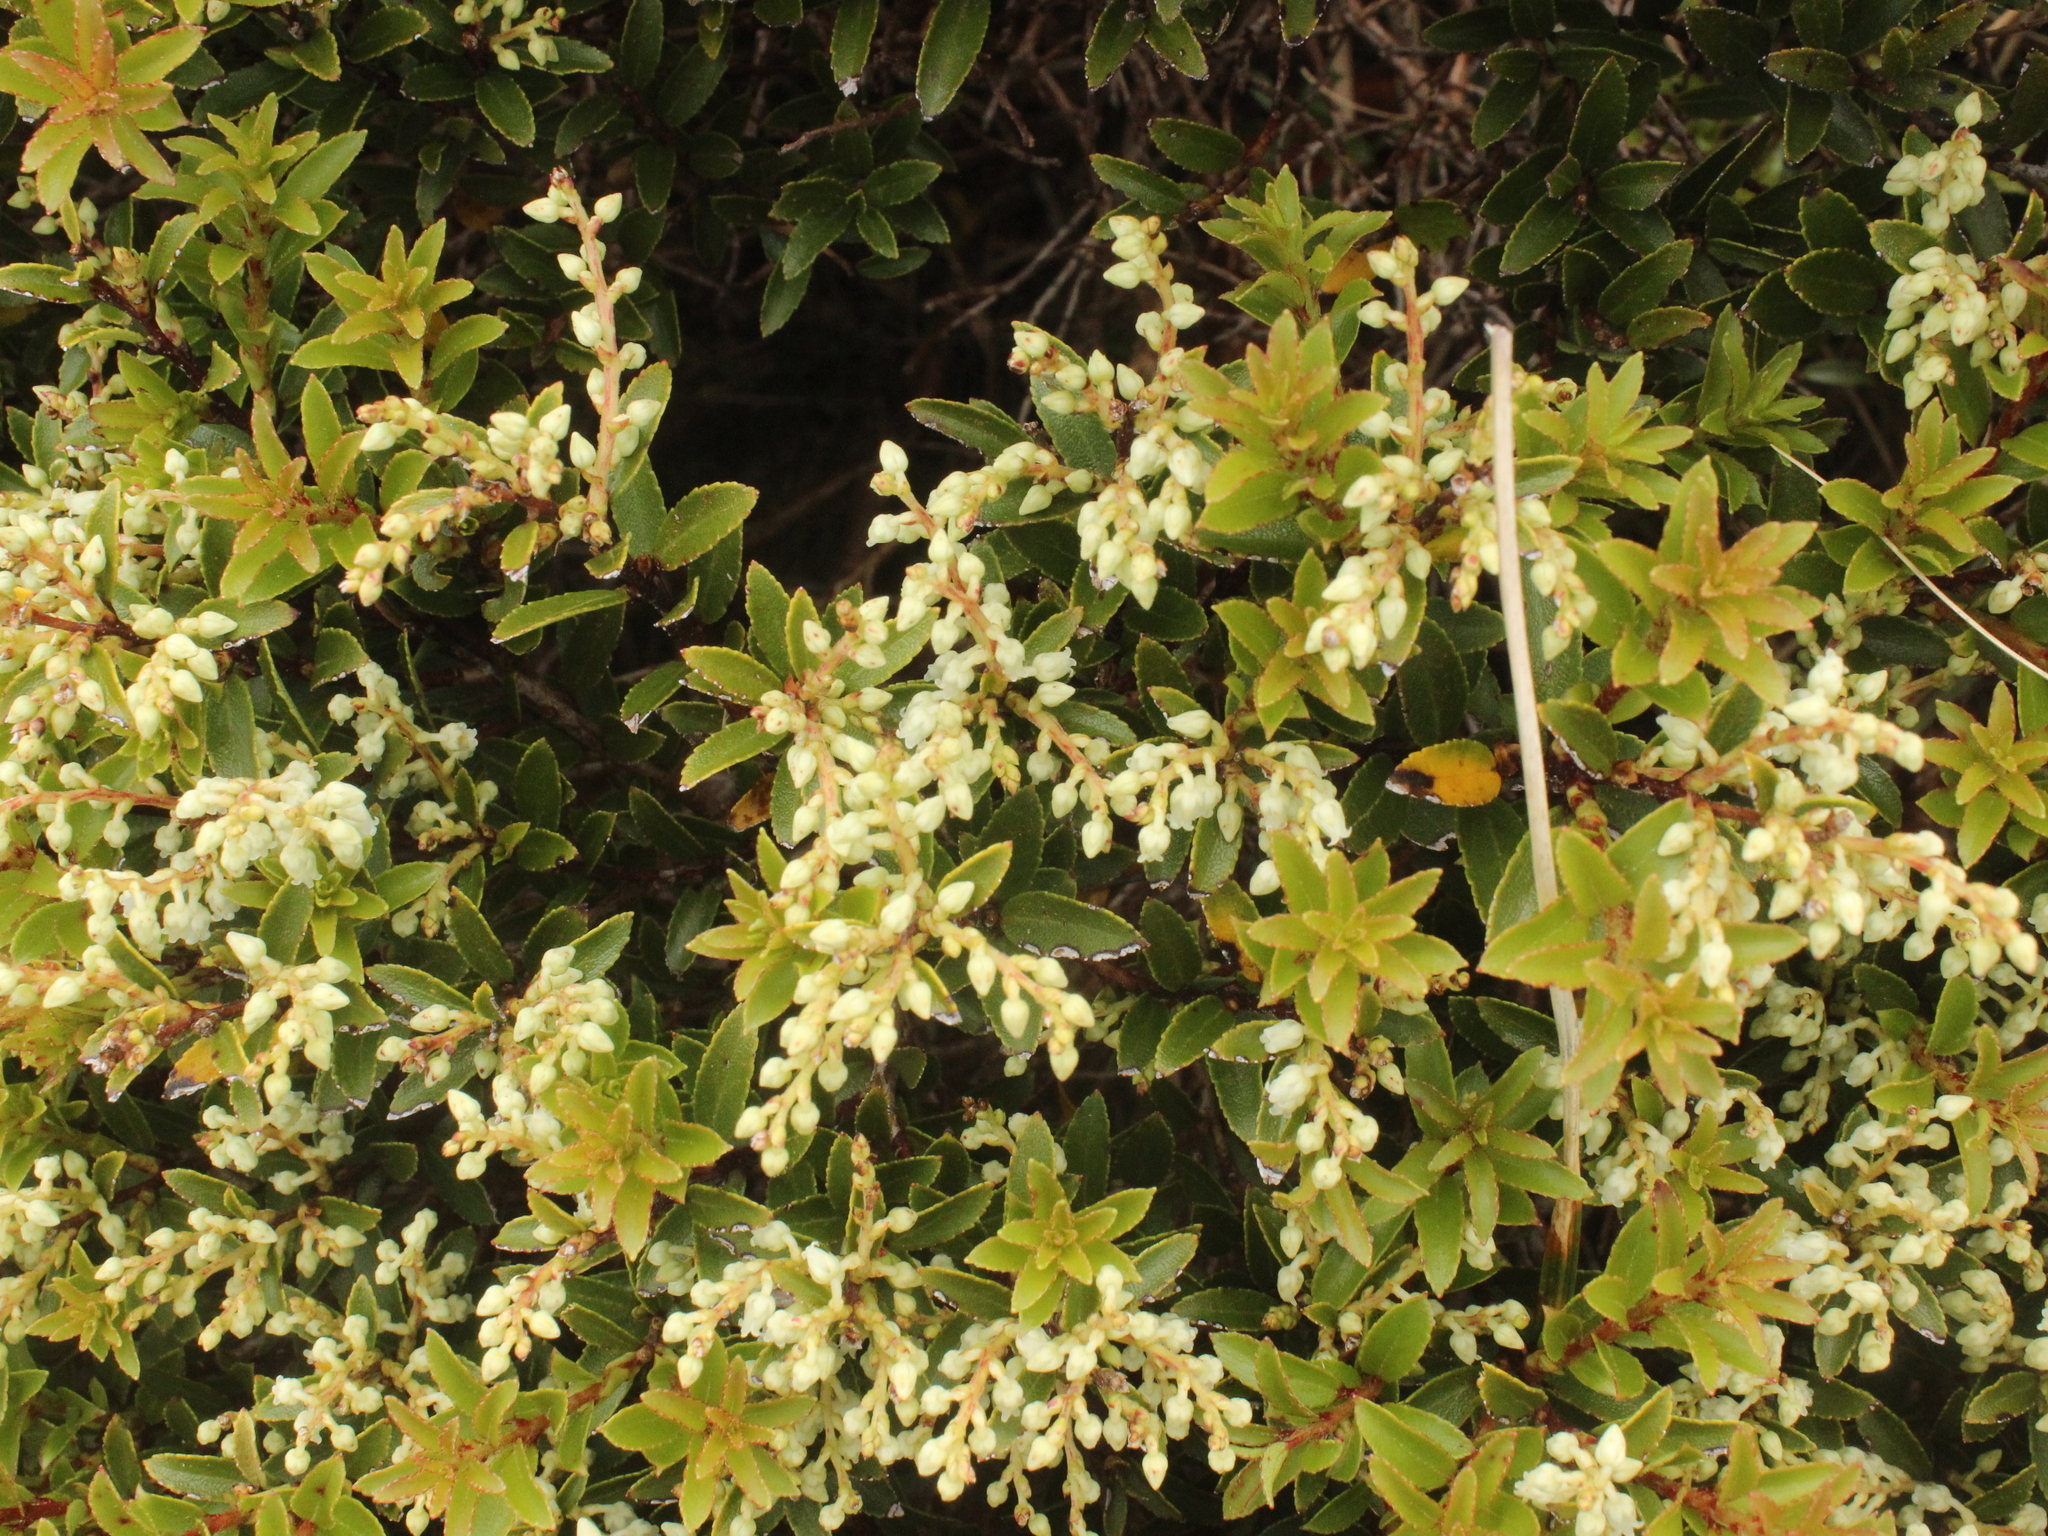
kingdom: Plantae
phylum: Tracheophyta
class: Magnoliopsida
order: Ericales
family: Ericaceae
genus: Gaultheria
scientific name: Gaultheria rupestris
